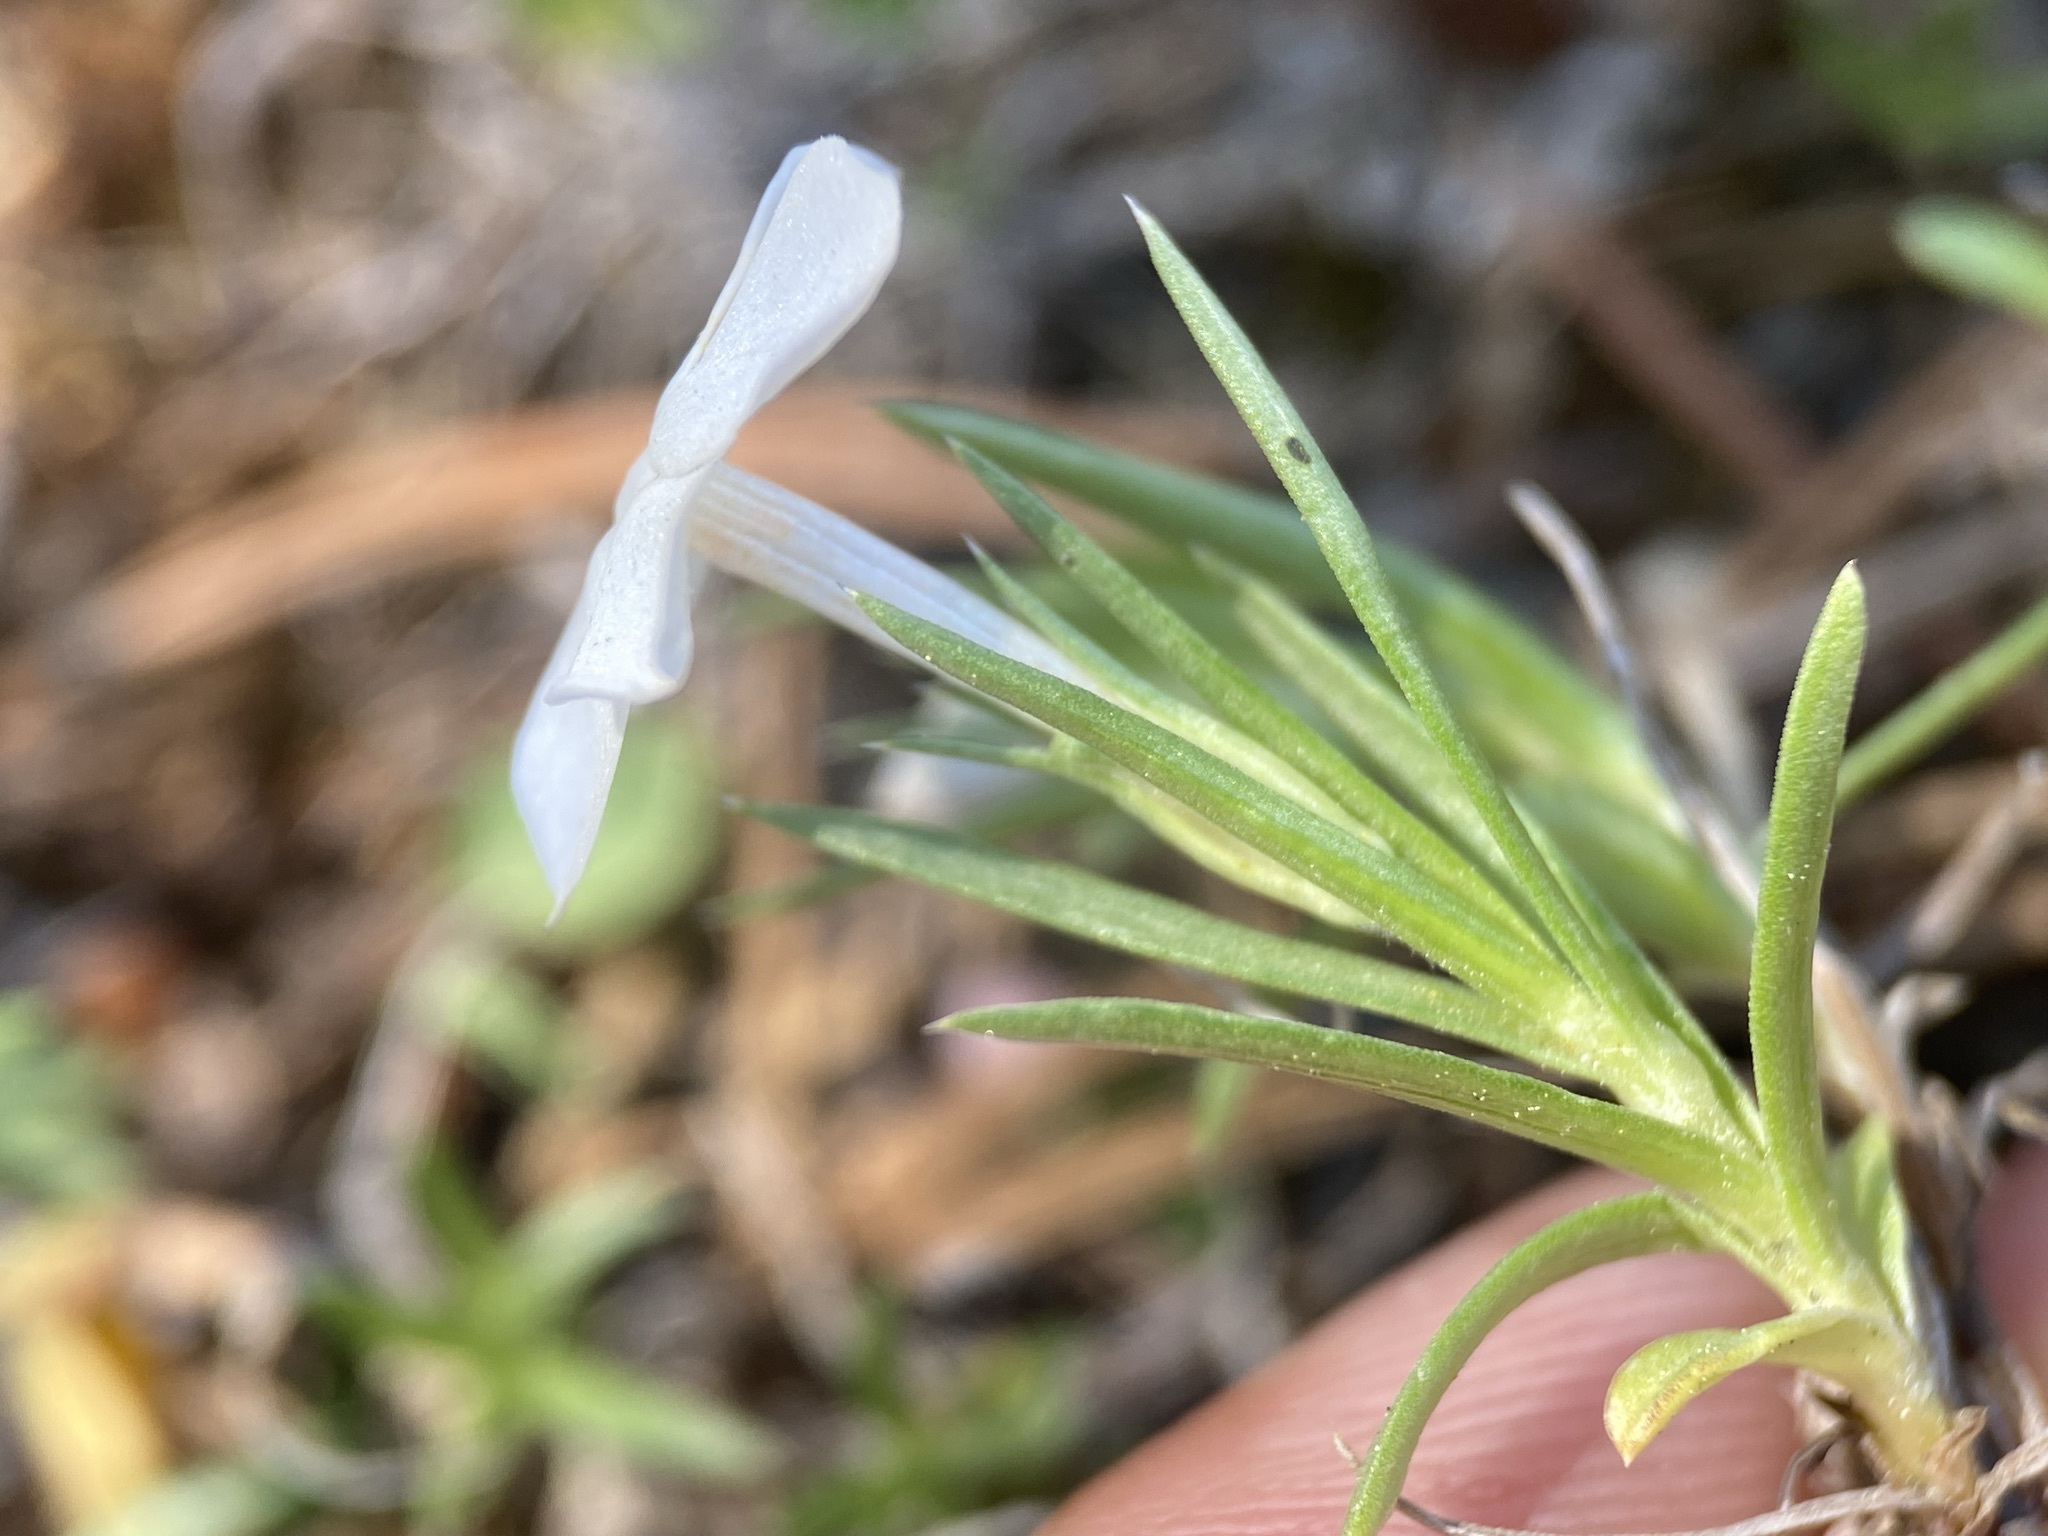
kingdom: Plantae
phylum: Tracheophyta
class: Magnoliopsida
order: Ericales
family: Polemoniaceae
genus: Phlox
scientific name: Phlox multiflora
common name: Rocky mountain phlox
